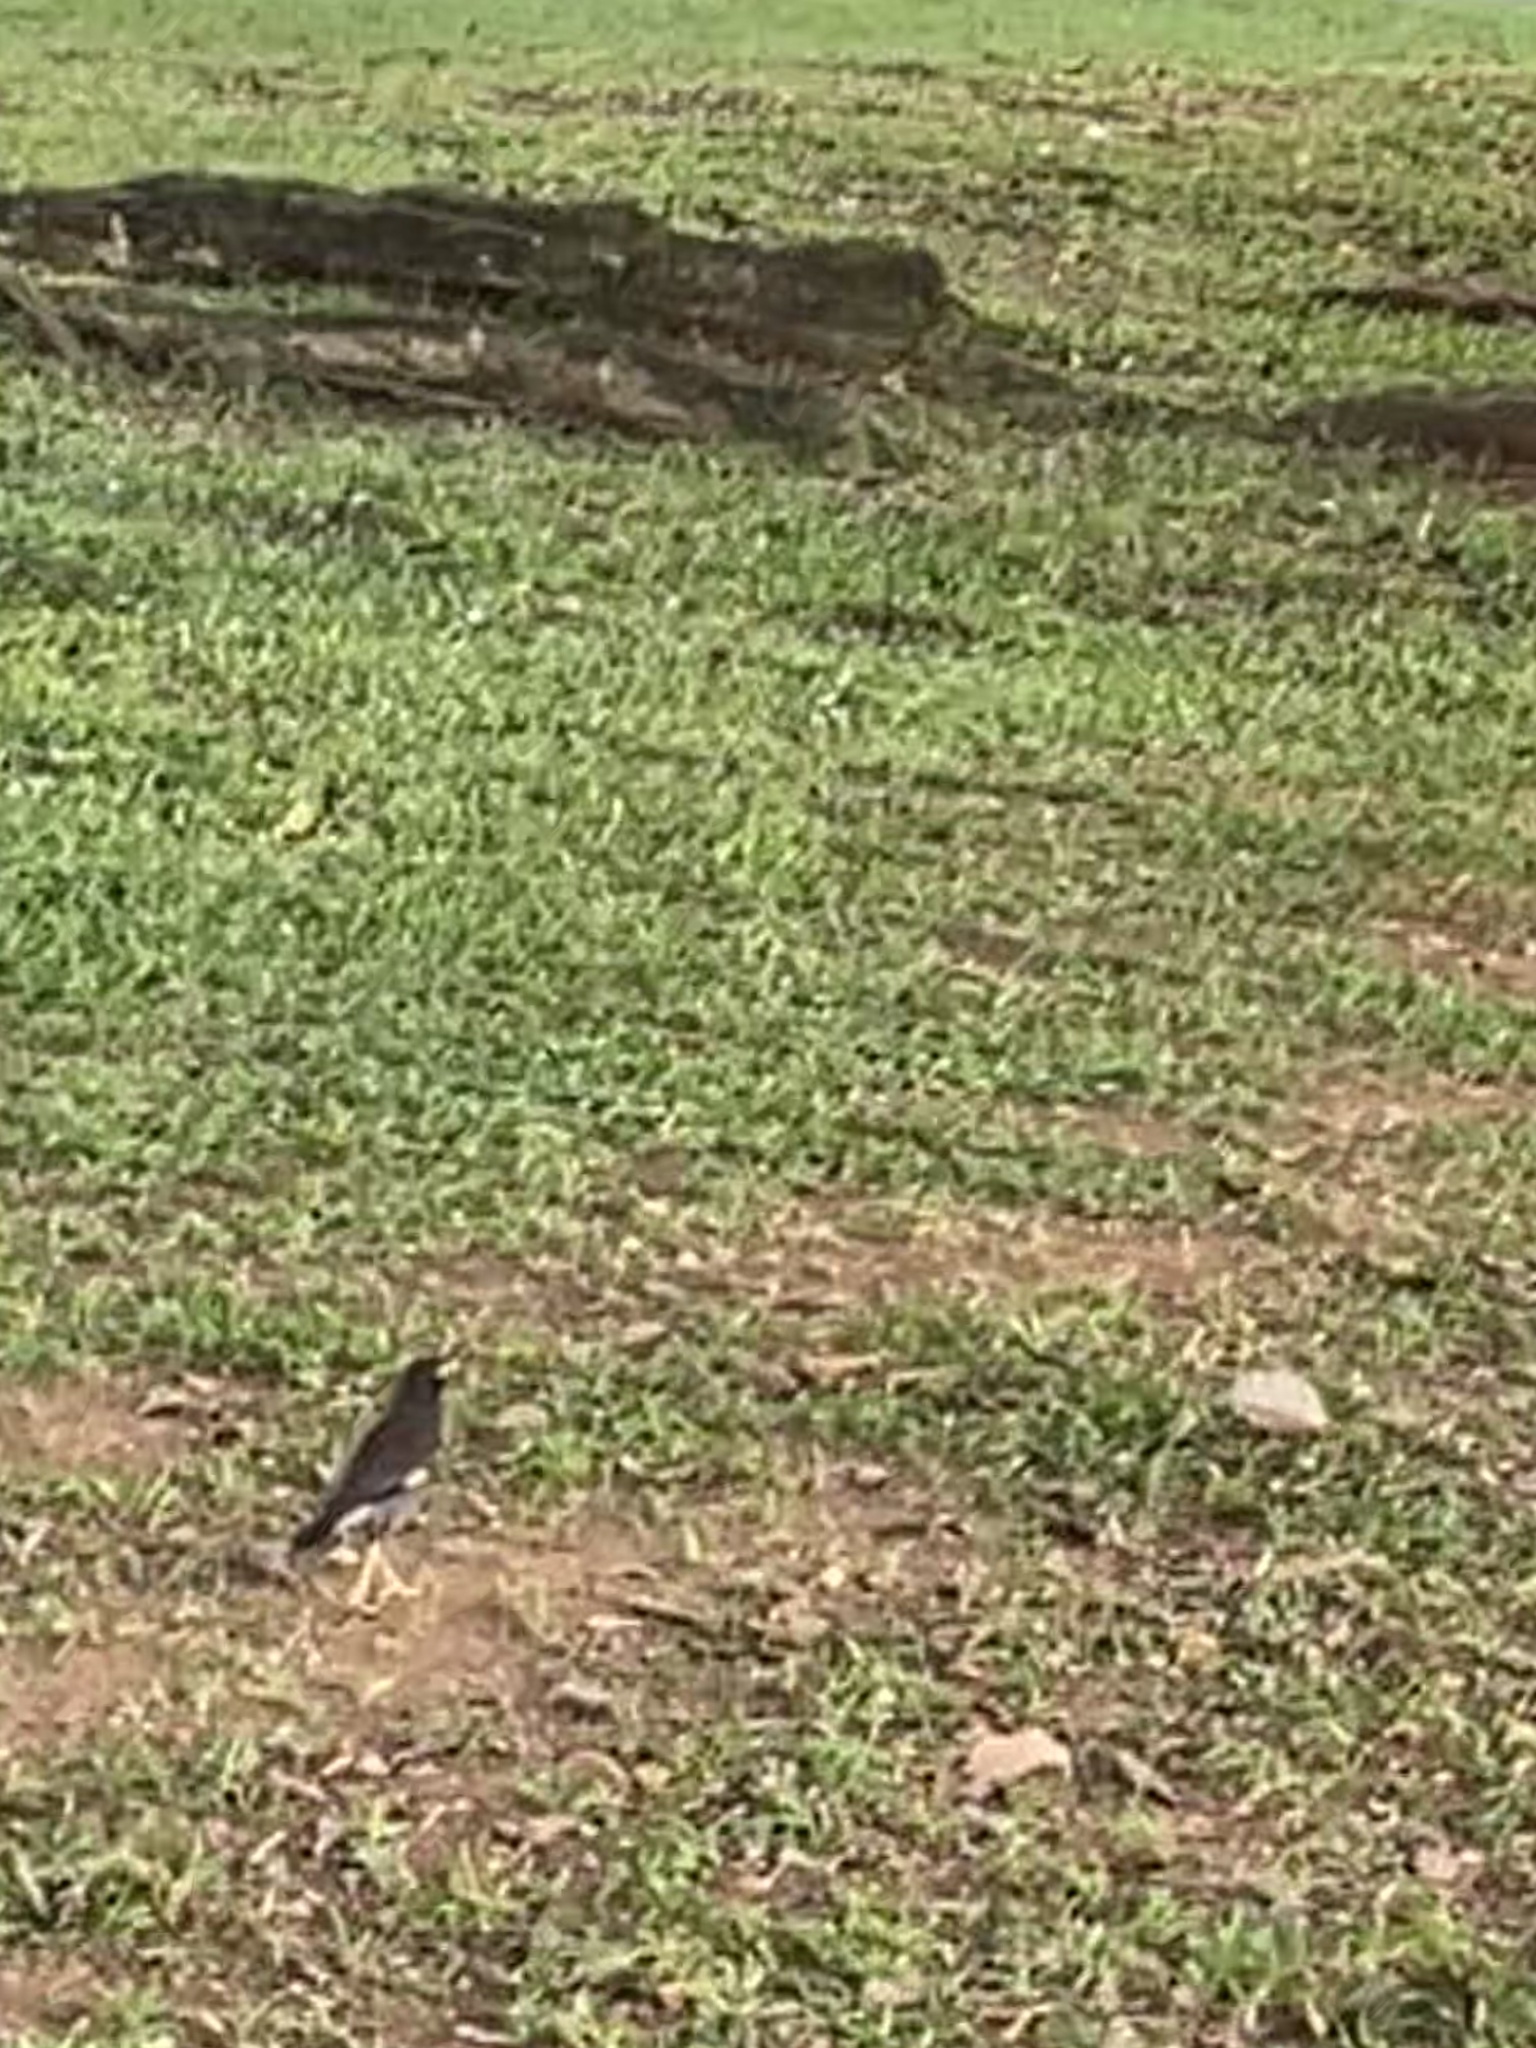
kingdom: Animalia
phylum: Chordata
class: Aves
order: Passeriformes
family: Sturnidae
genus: Acridotheres
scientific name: Acridotheres tristis
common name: Common myna
